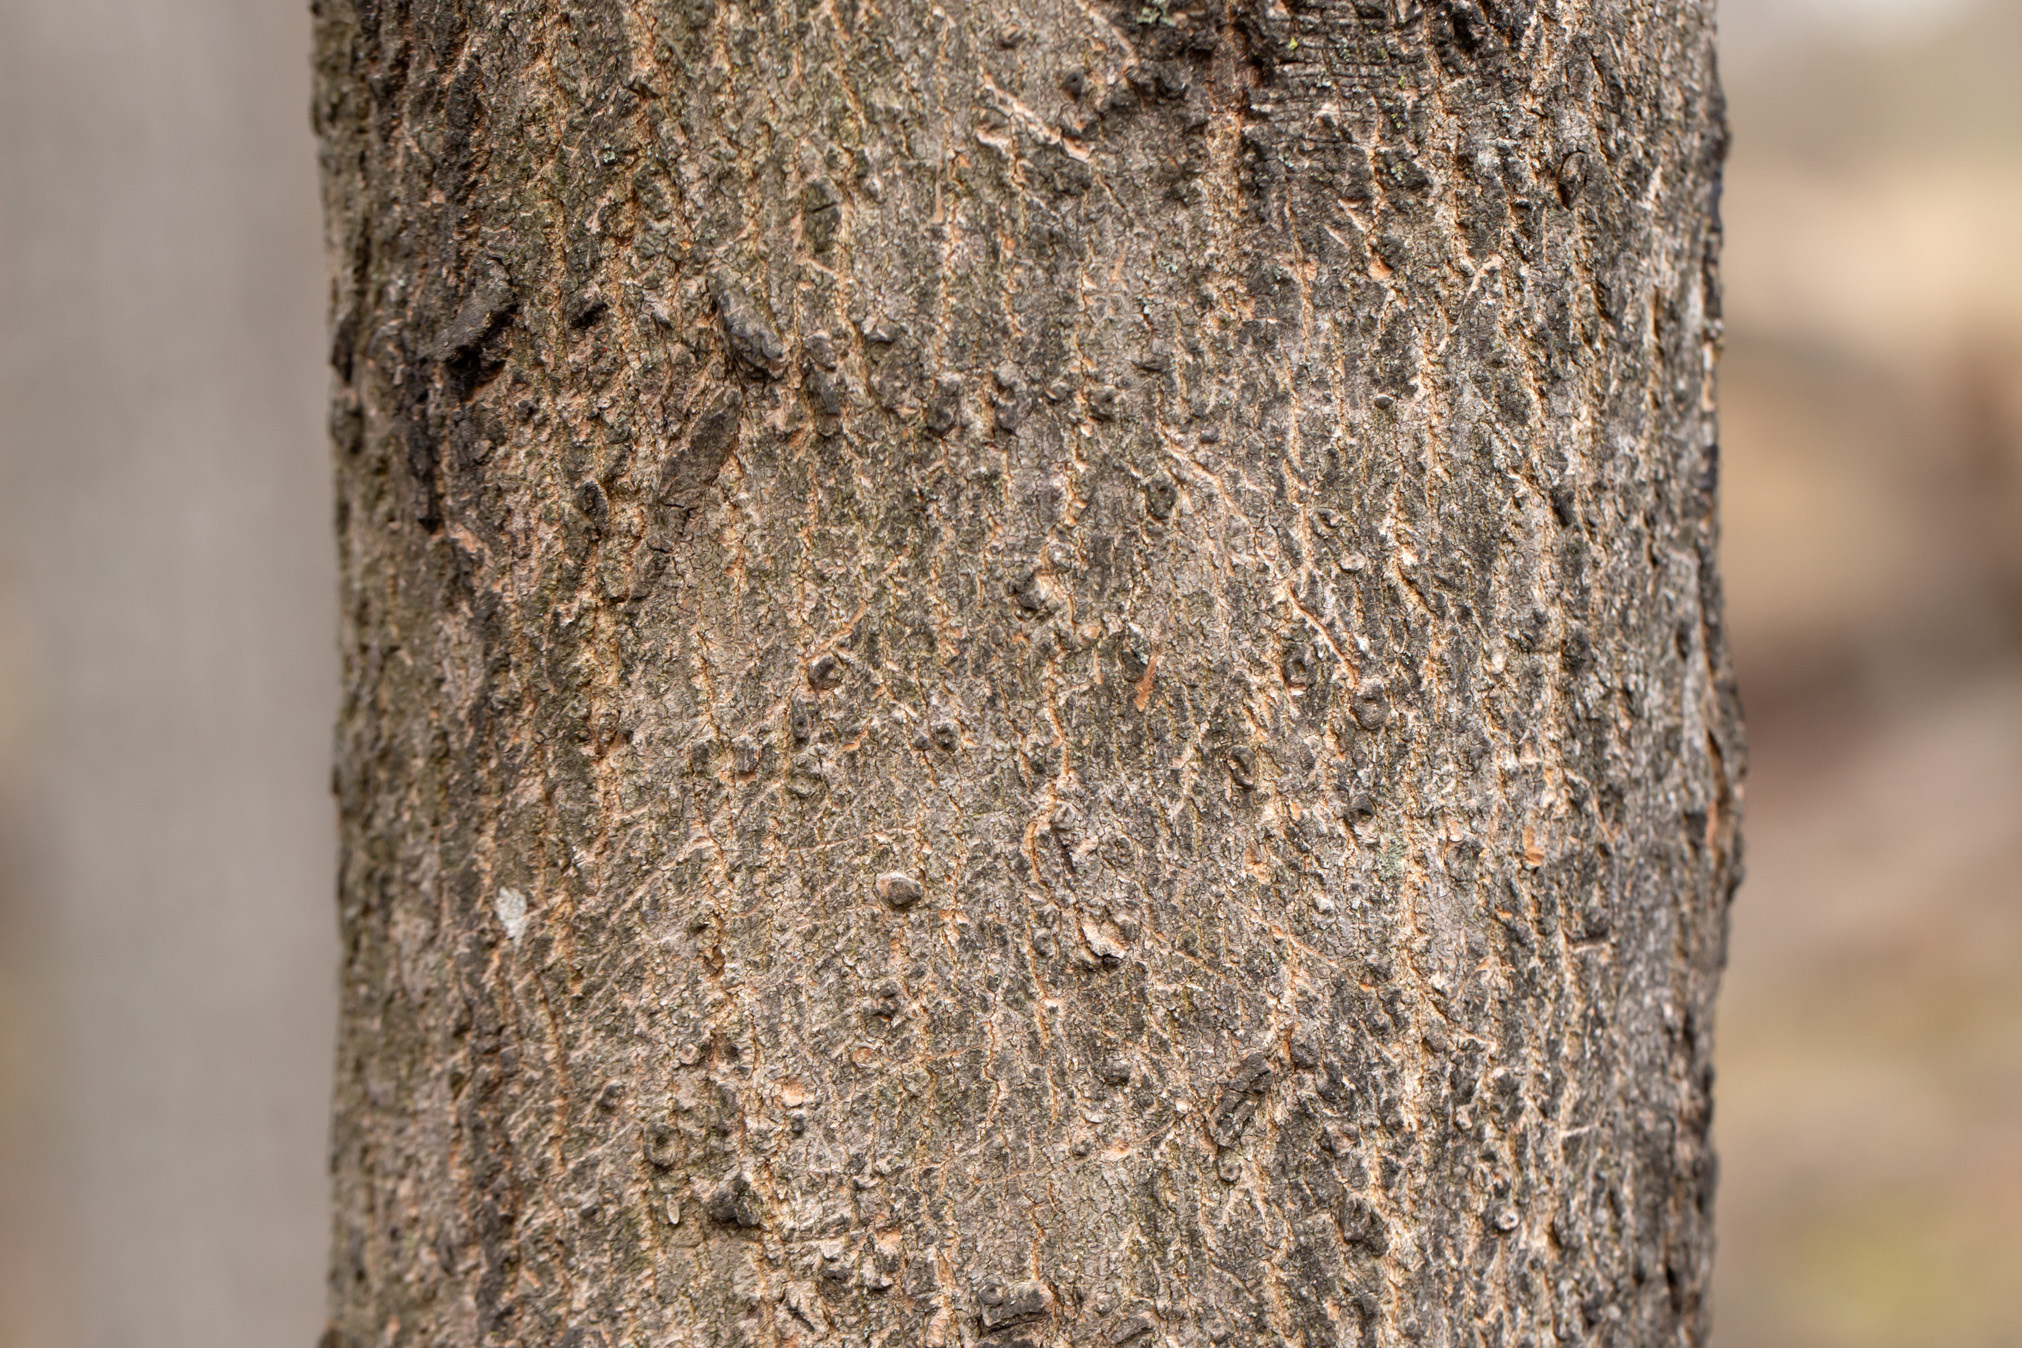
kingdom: Plantae
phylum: Tracheophyta
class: Magnoliopsida
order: Sapindales
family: Sapindaceae
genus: Acer
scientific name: Acer saccharum
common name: Sugar maple
